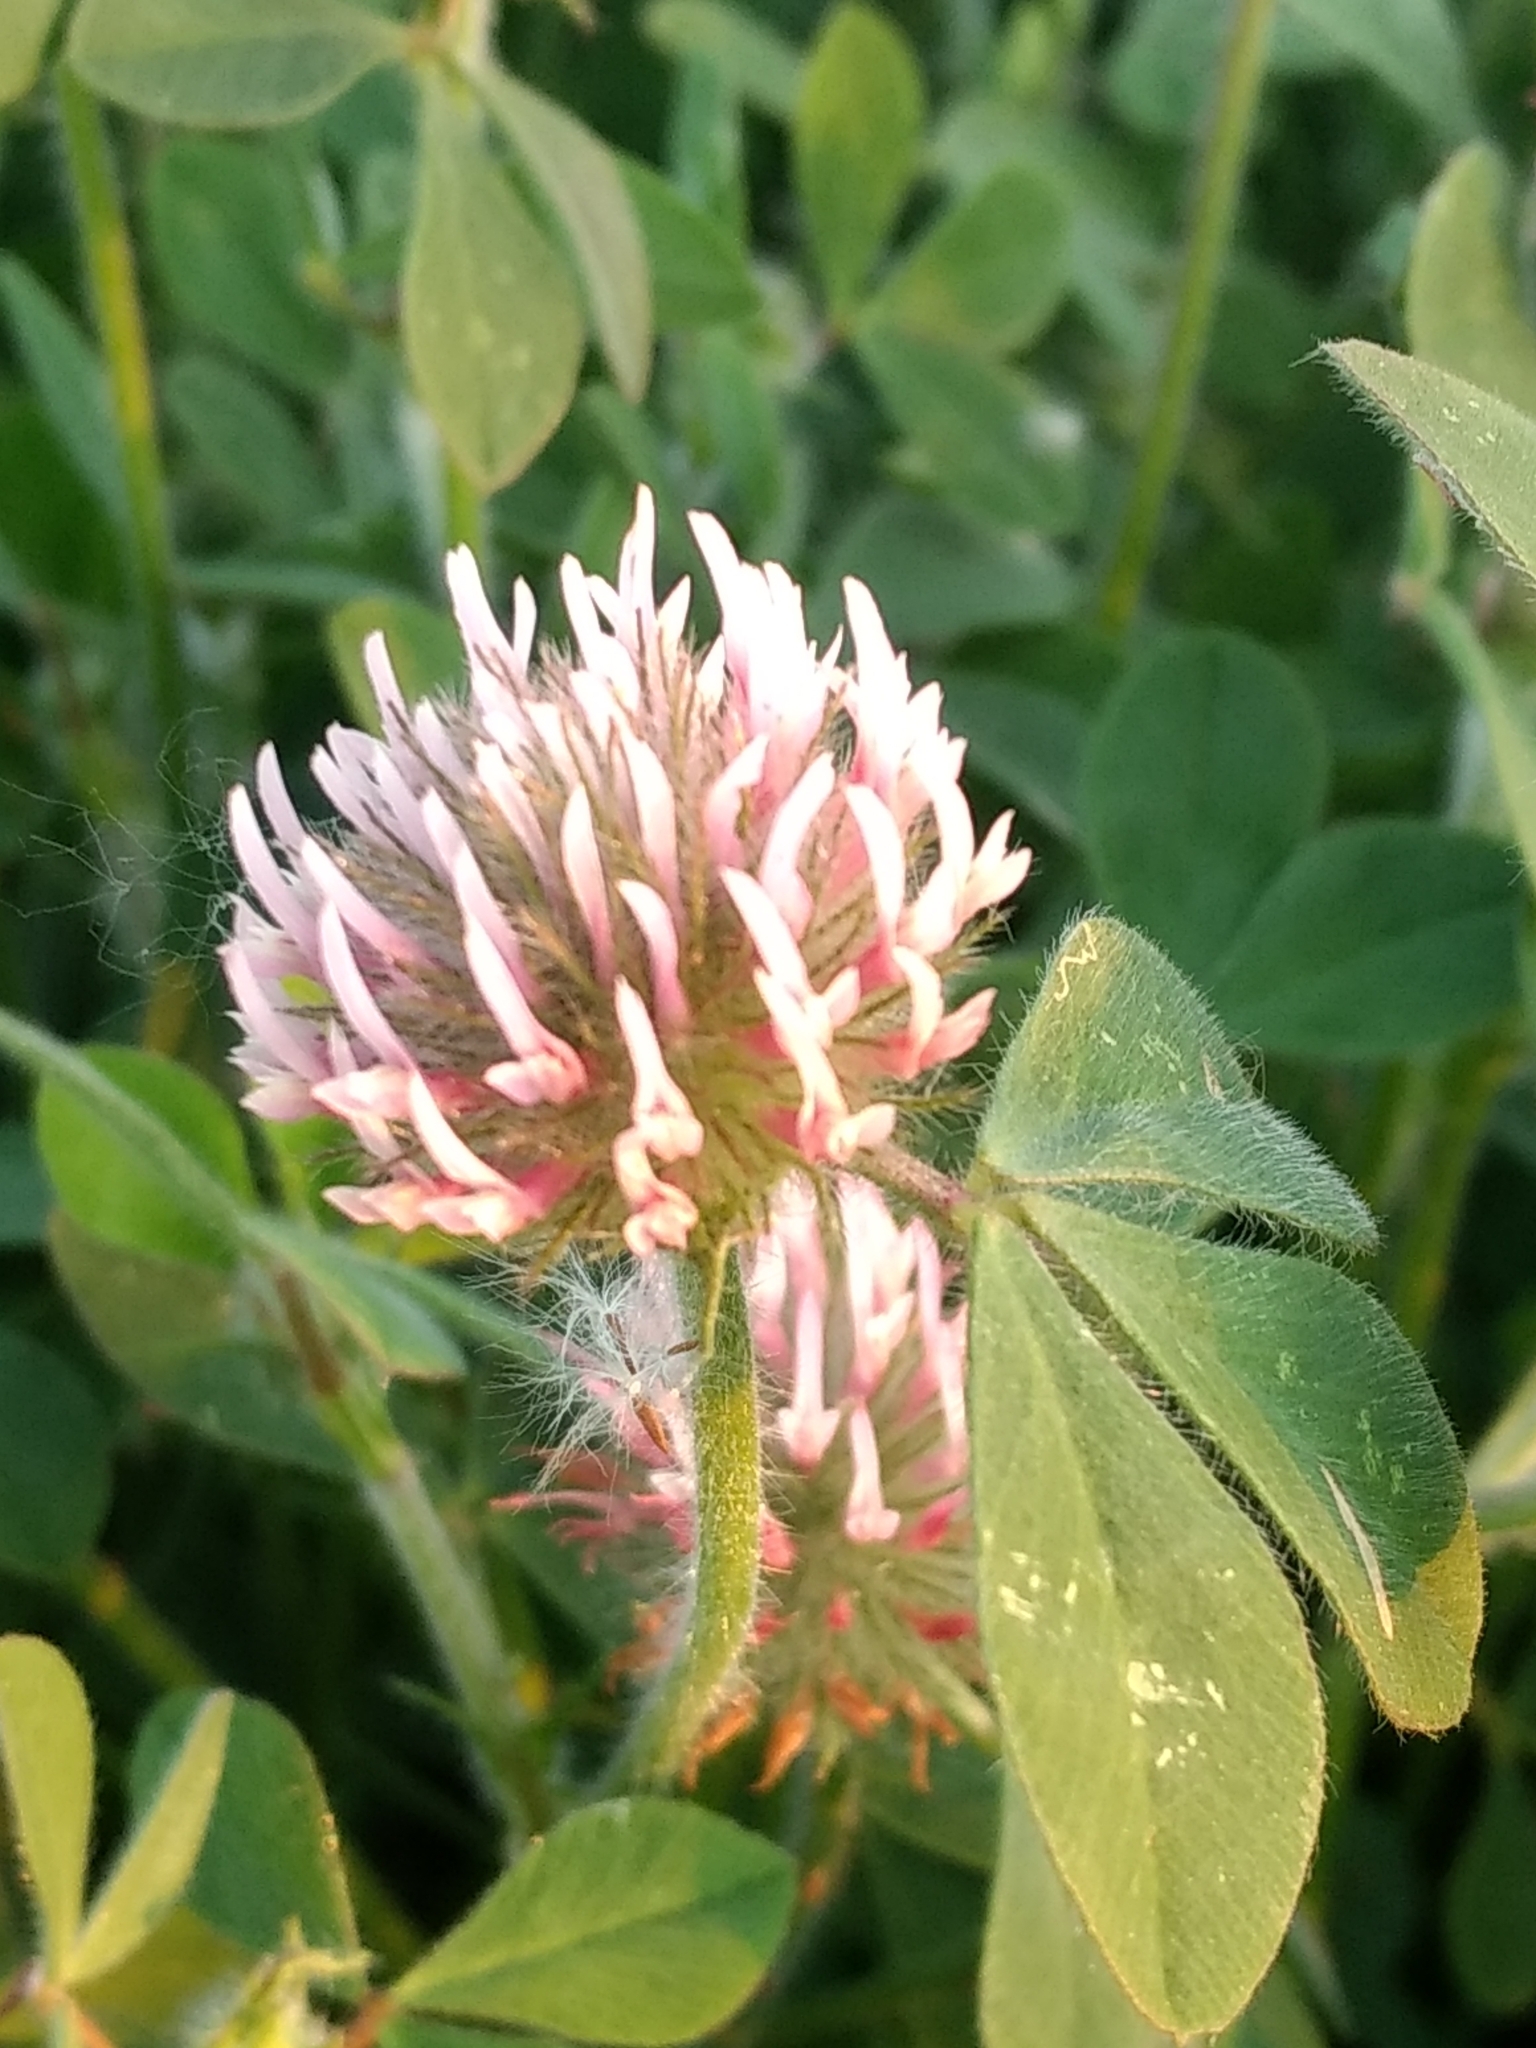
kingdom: Plantae
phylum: Tracheophyta
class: Magnoliopsida
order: Fabales
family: Fabaceae
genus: Trifolium
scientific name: Trifolium hirtum
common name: Rose clover
